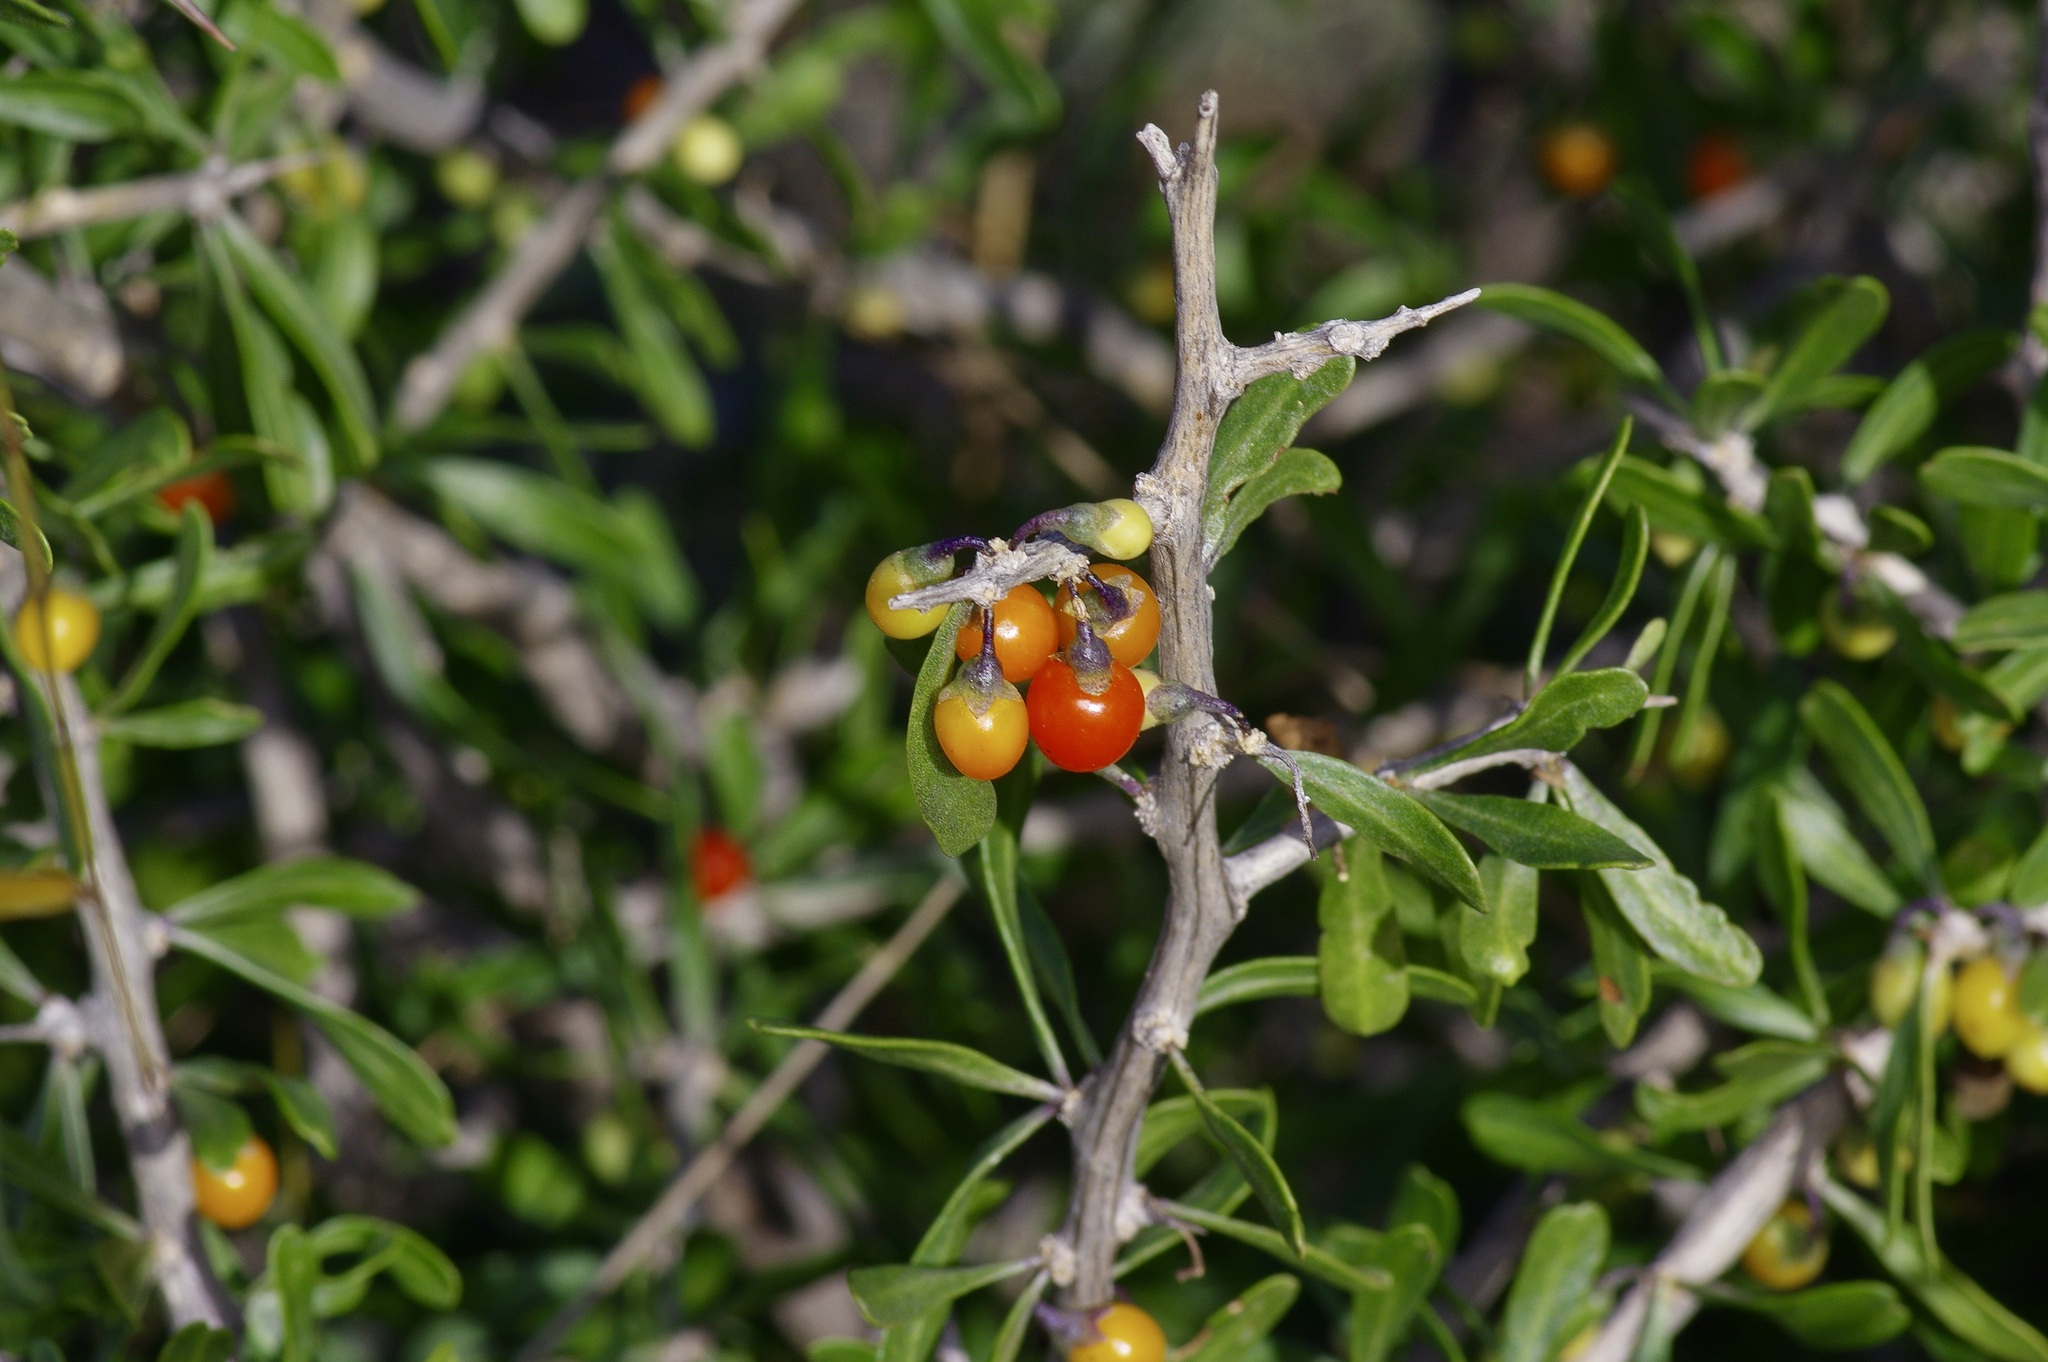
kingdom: Plantae
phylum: Tracheophyta
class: Magnoliopsida
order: Solanales
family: Solanaceae
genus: Lycium
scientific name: Lycium berlandieri
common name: Berlandier wolfberry
